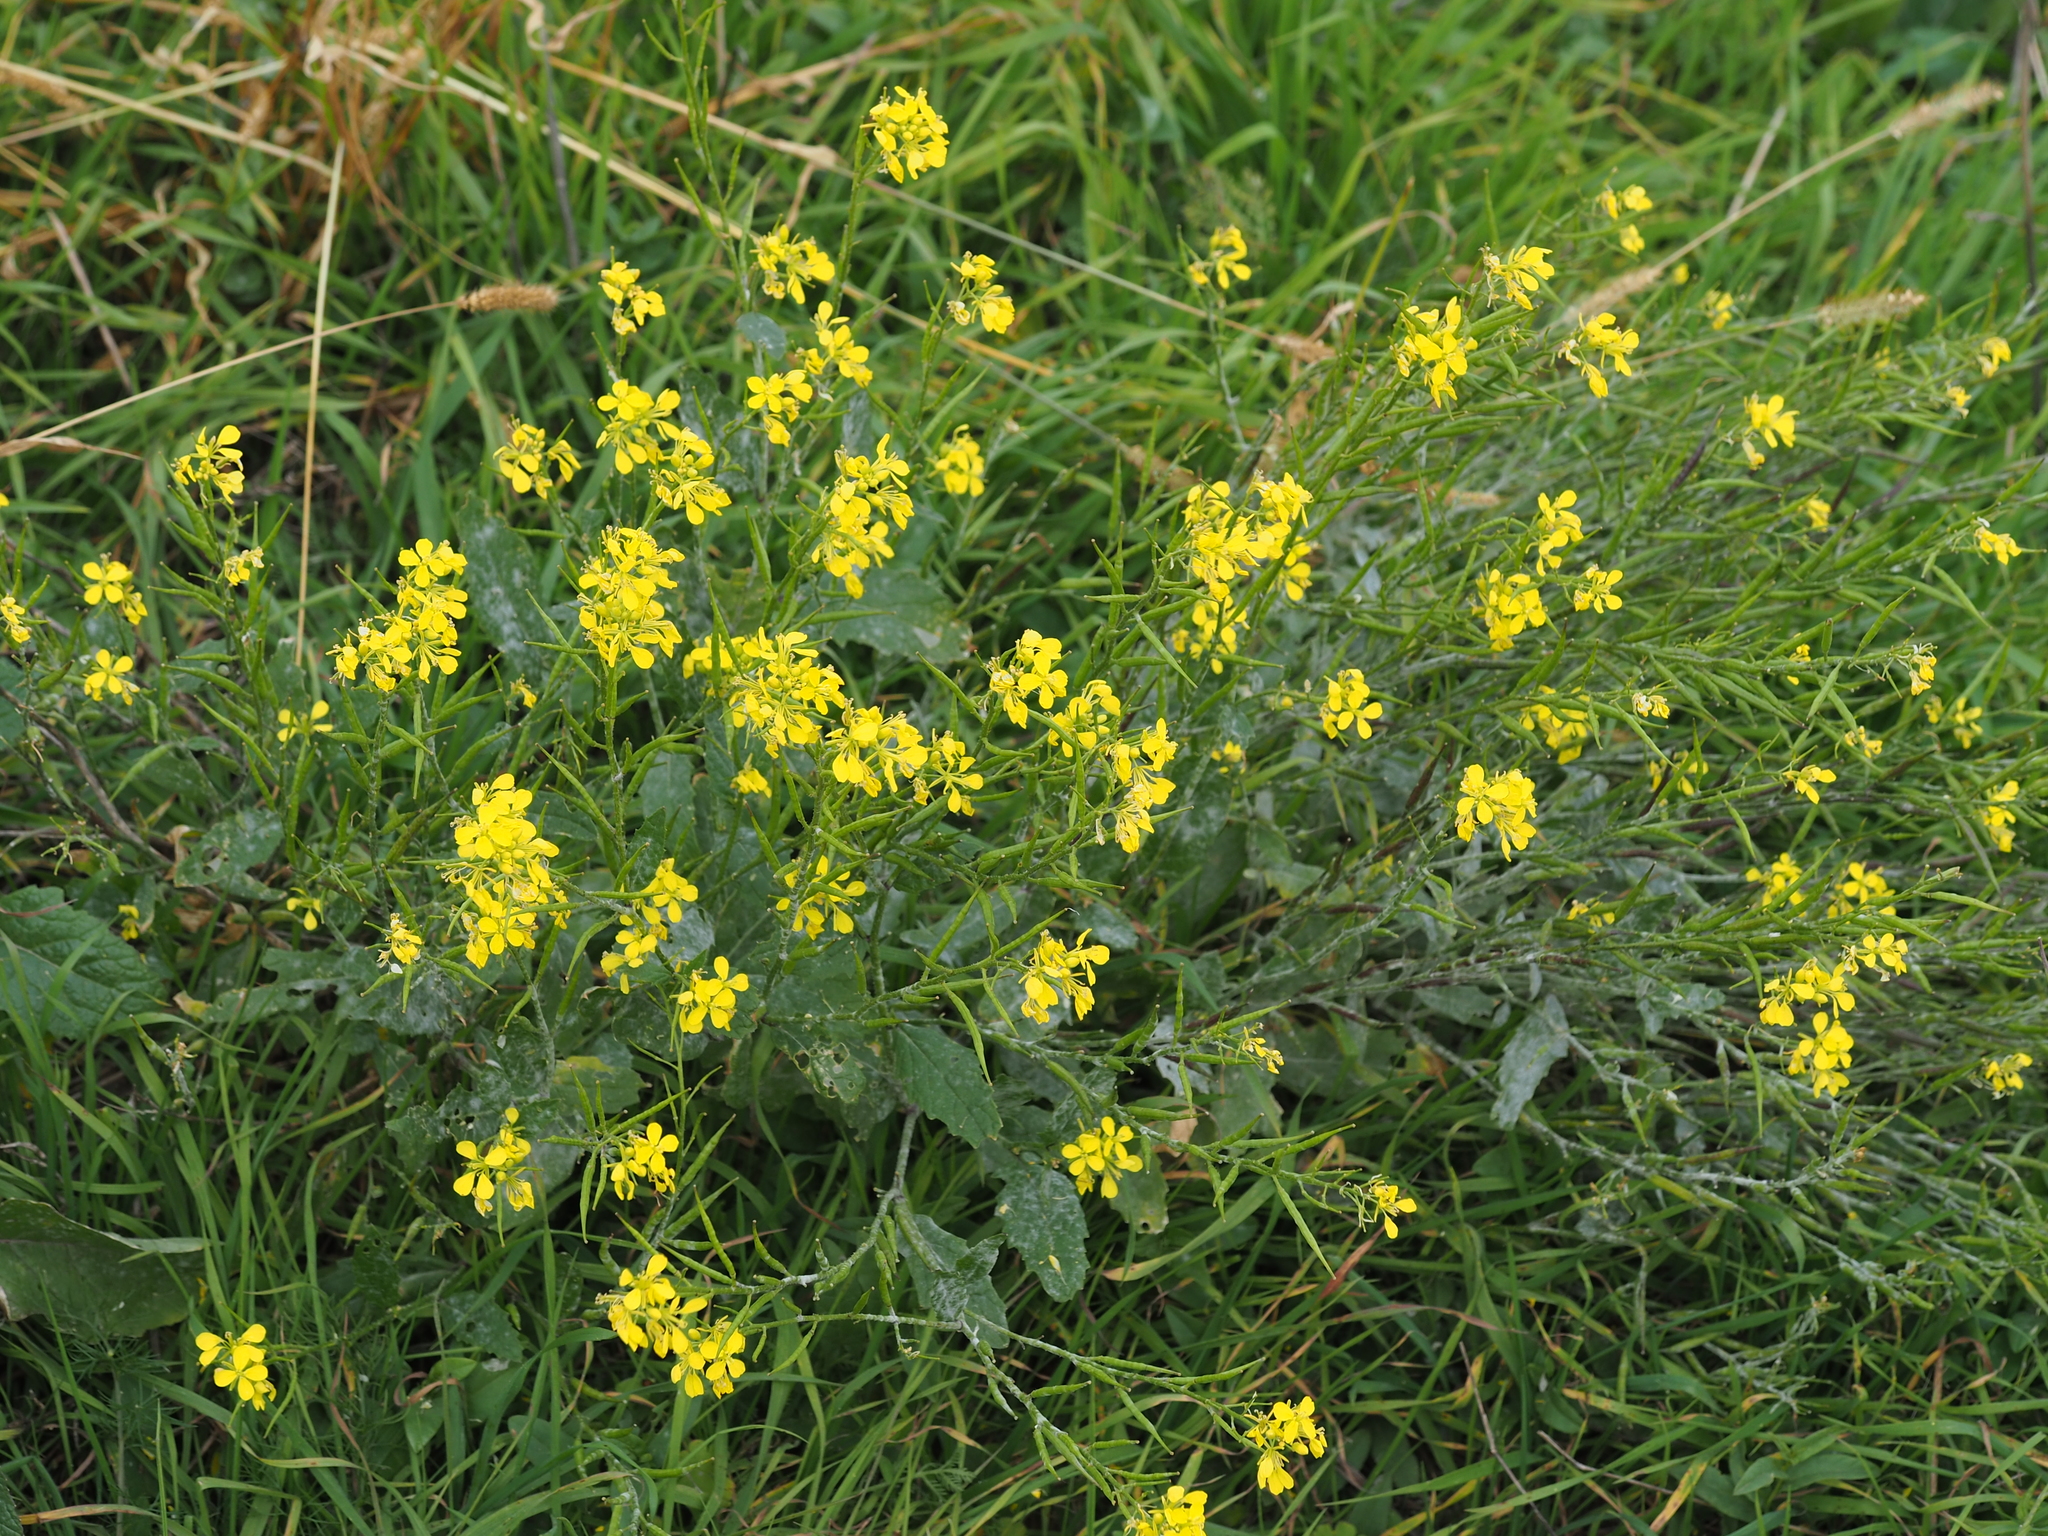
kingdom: Plantae
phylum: Tracheophyta
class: Magnoliopsida
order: Brassicales
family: Brassicaceae
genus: Sinapis
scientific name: Sinapis arvensis
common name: Charlock
